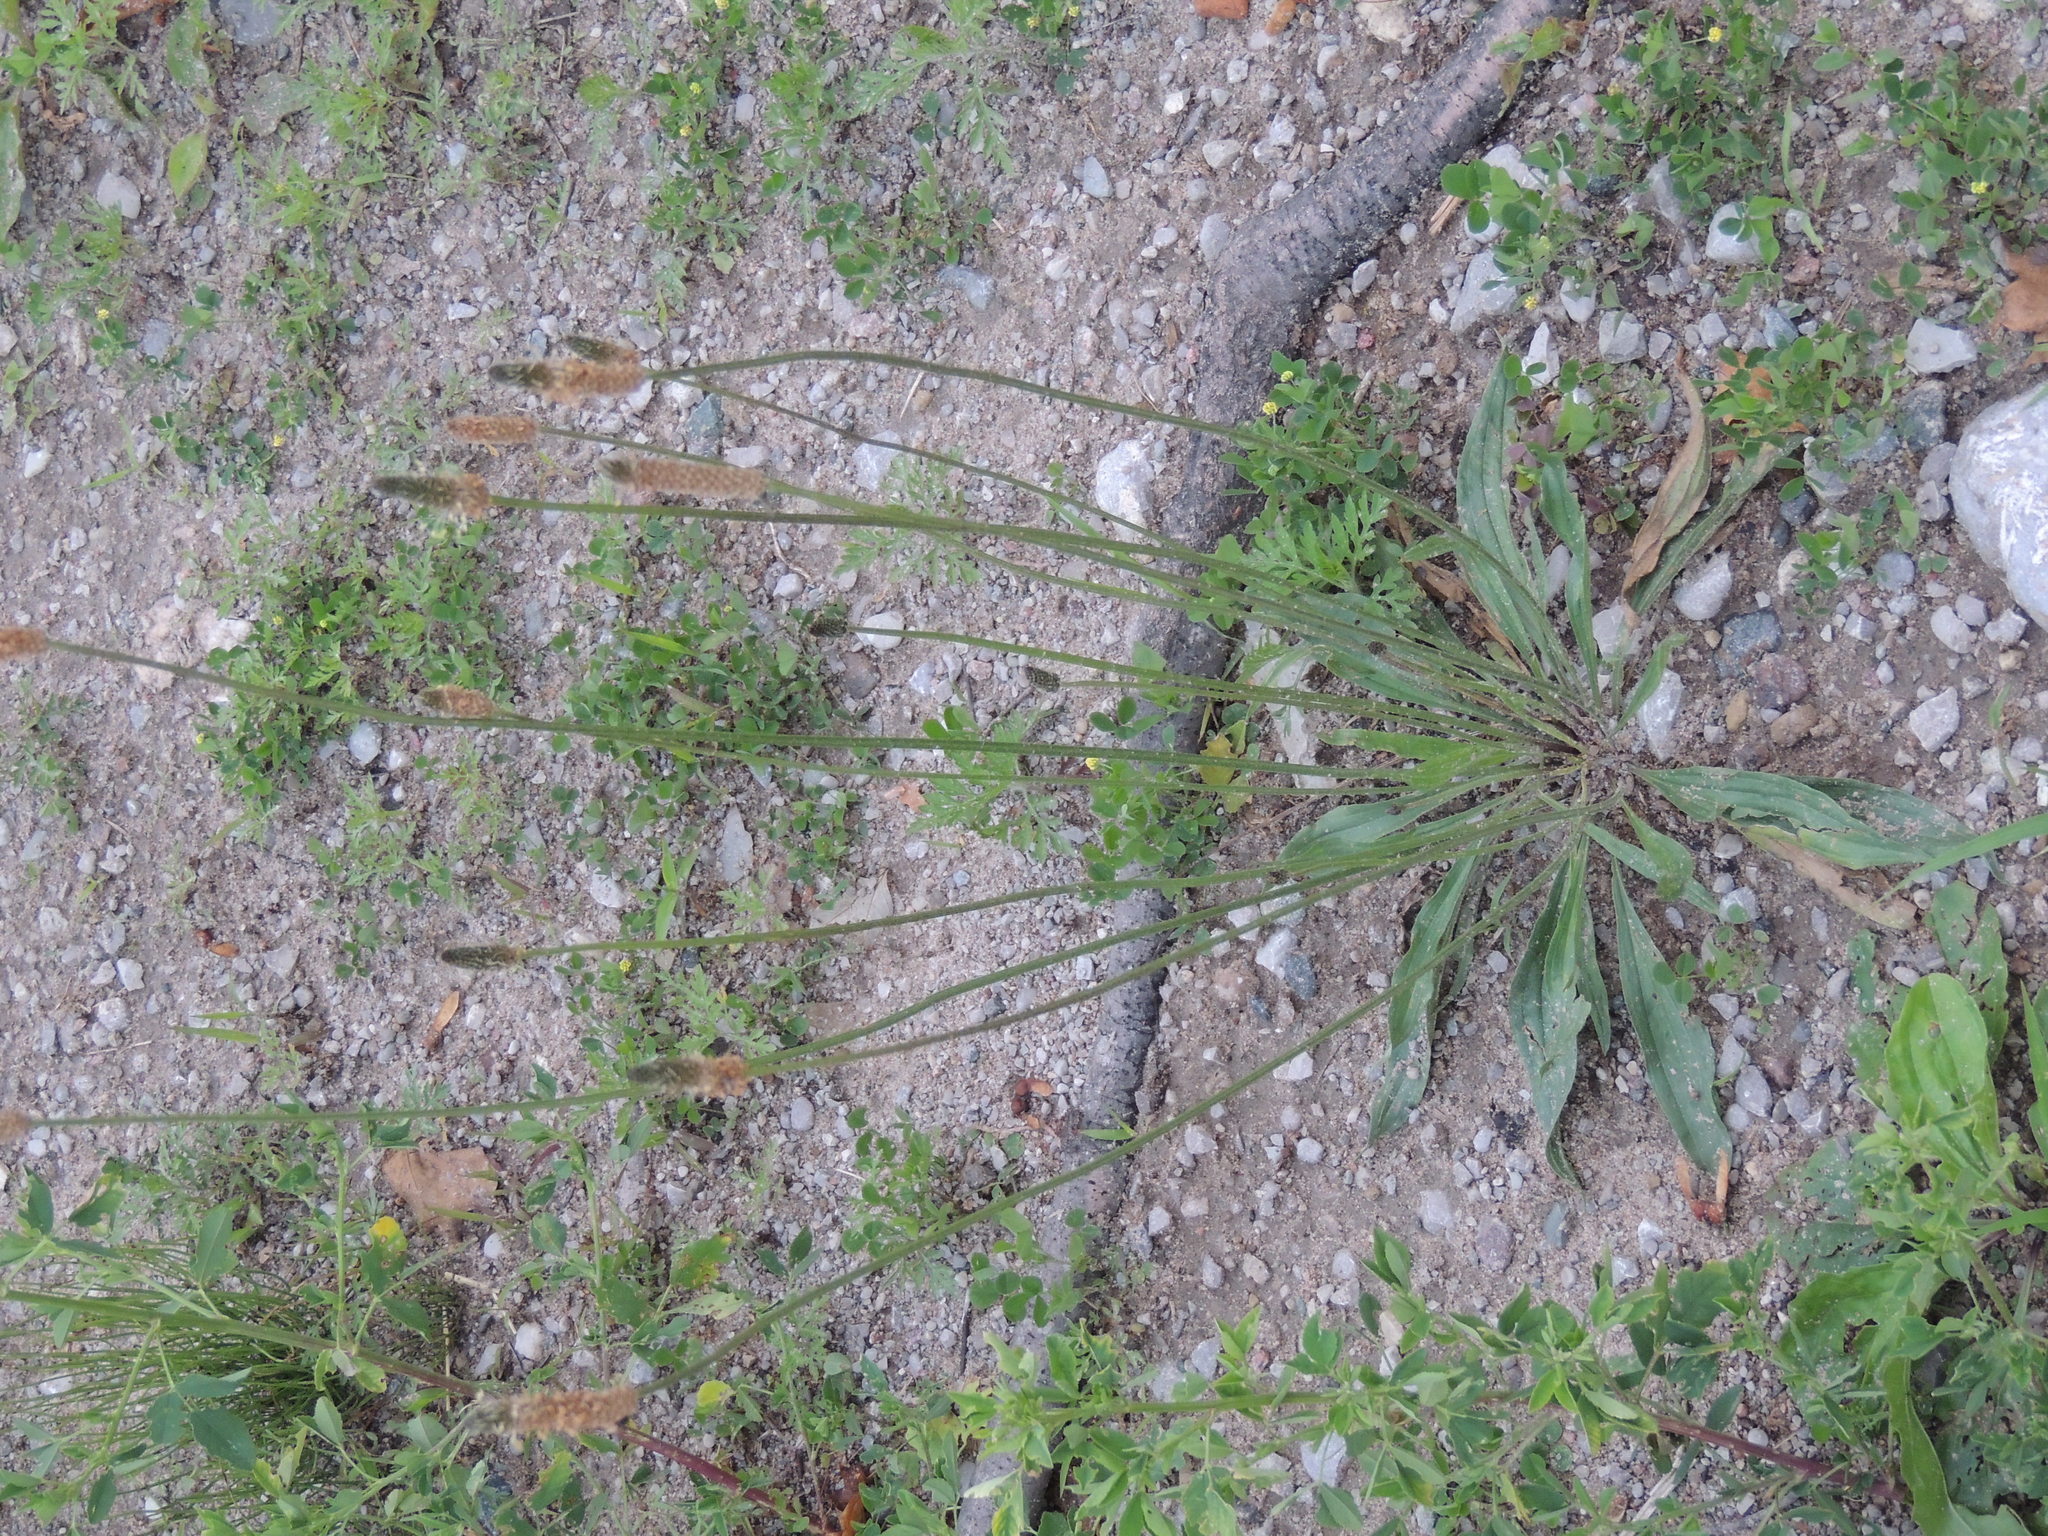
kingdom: Plantae
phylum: Tracheophyta
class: Magnoliopsida
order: Lamiales
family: Plantaginaceae
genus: Plantago
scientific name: Plantago lanceolata
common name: Ribwort plantain
